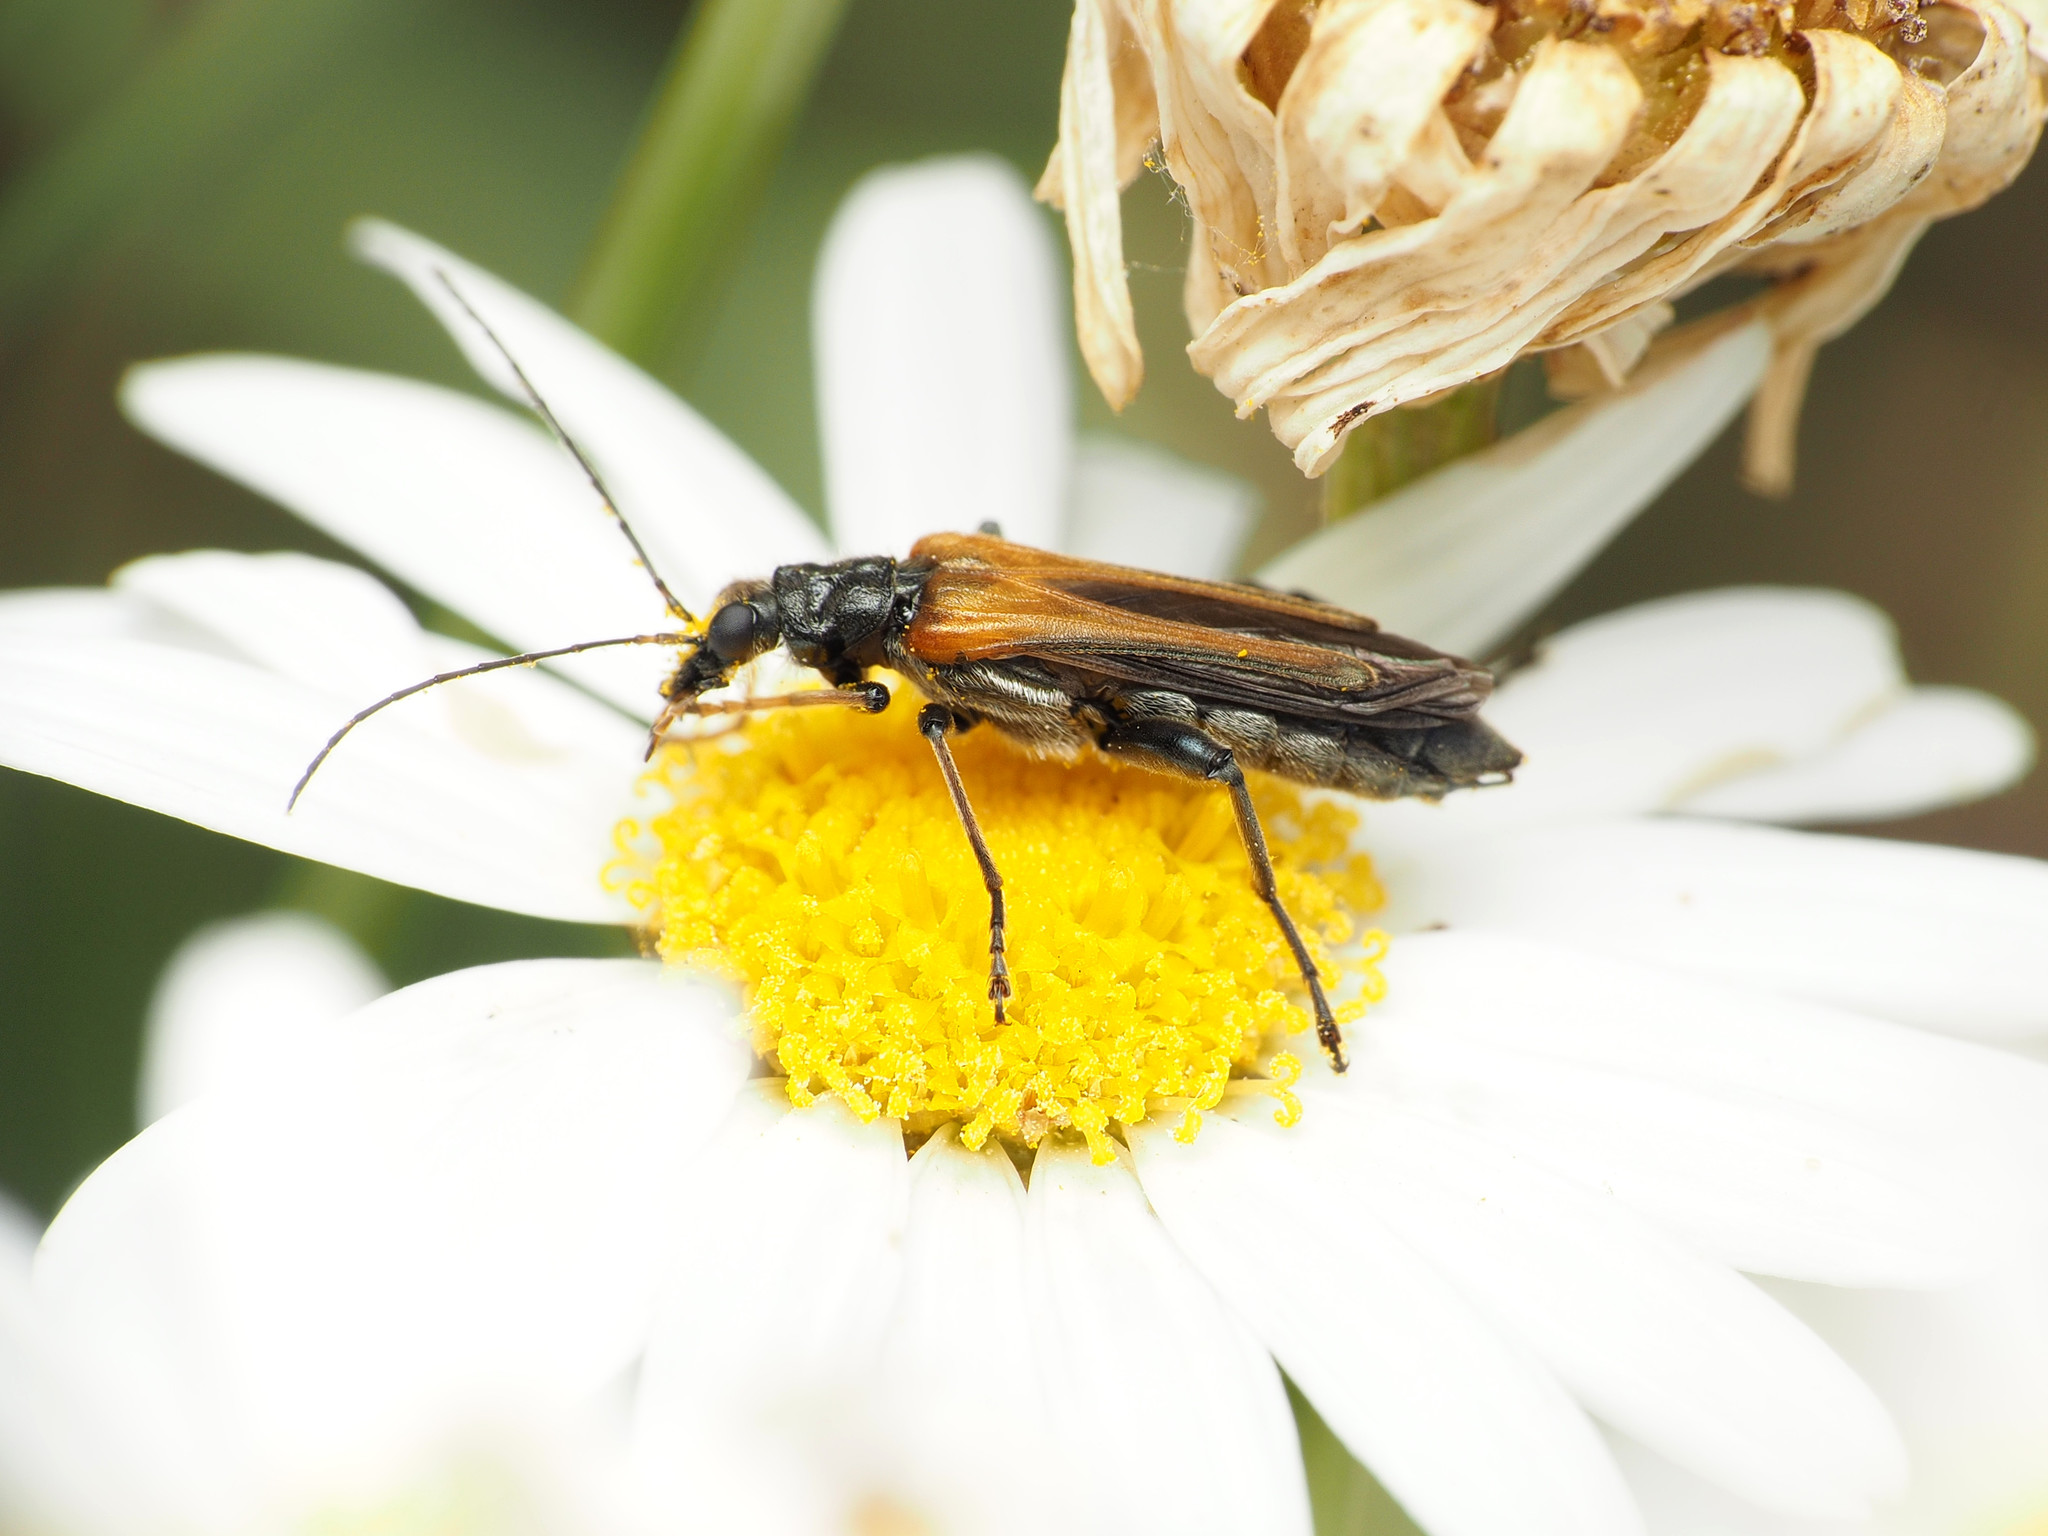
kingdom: Animalia
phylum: Arthropoda
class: Insecta
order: Coleoptera
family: Oedemeridae
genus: Oedemera
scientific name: Oedemera simplex
